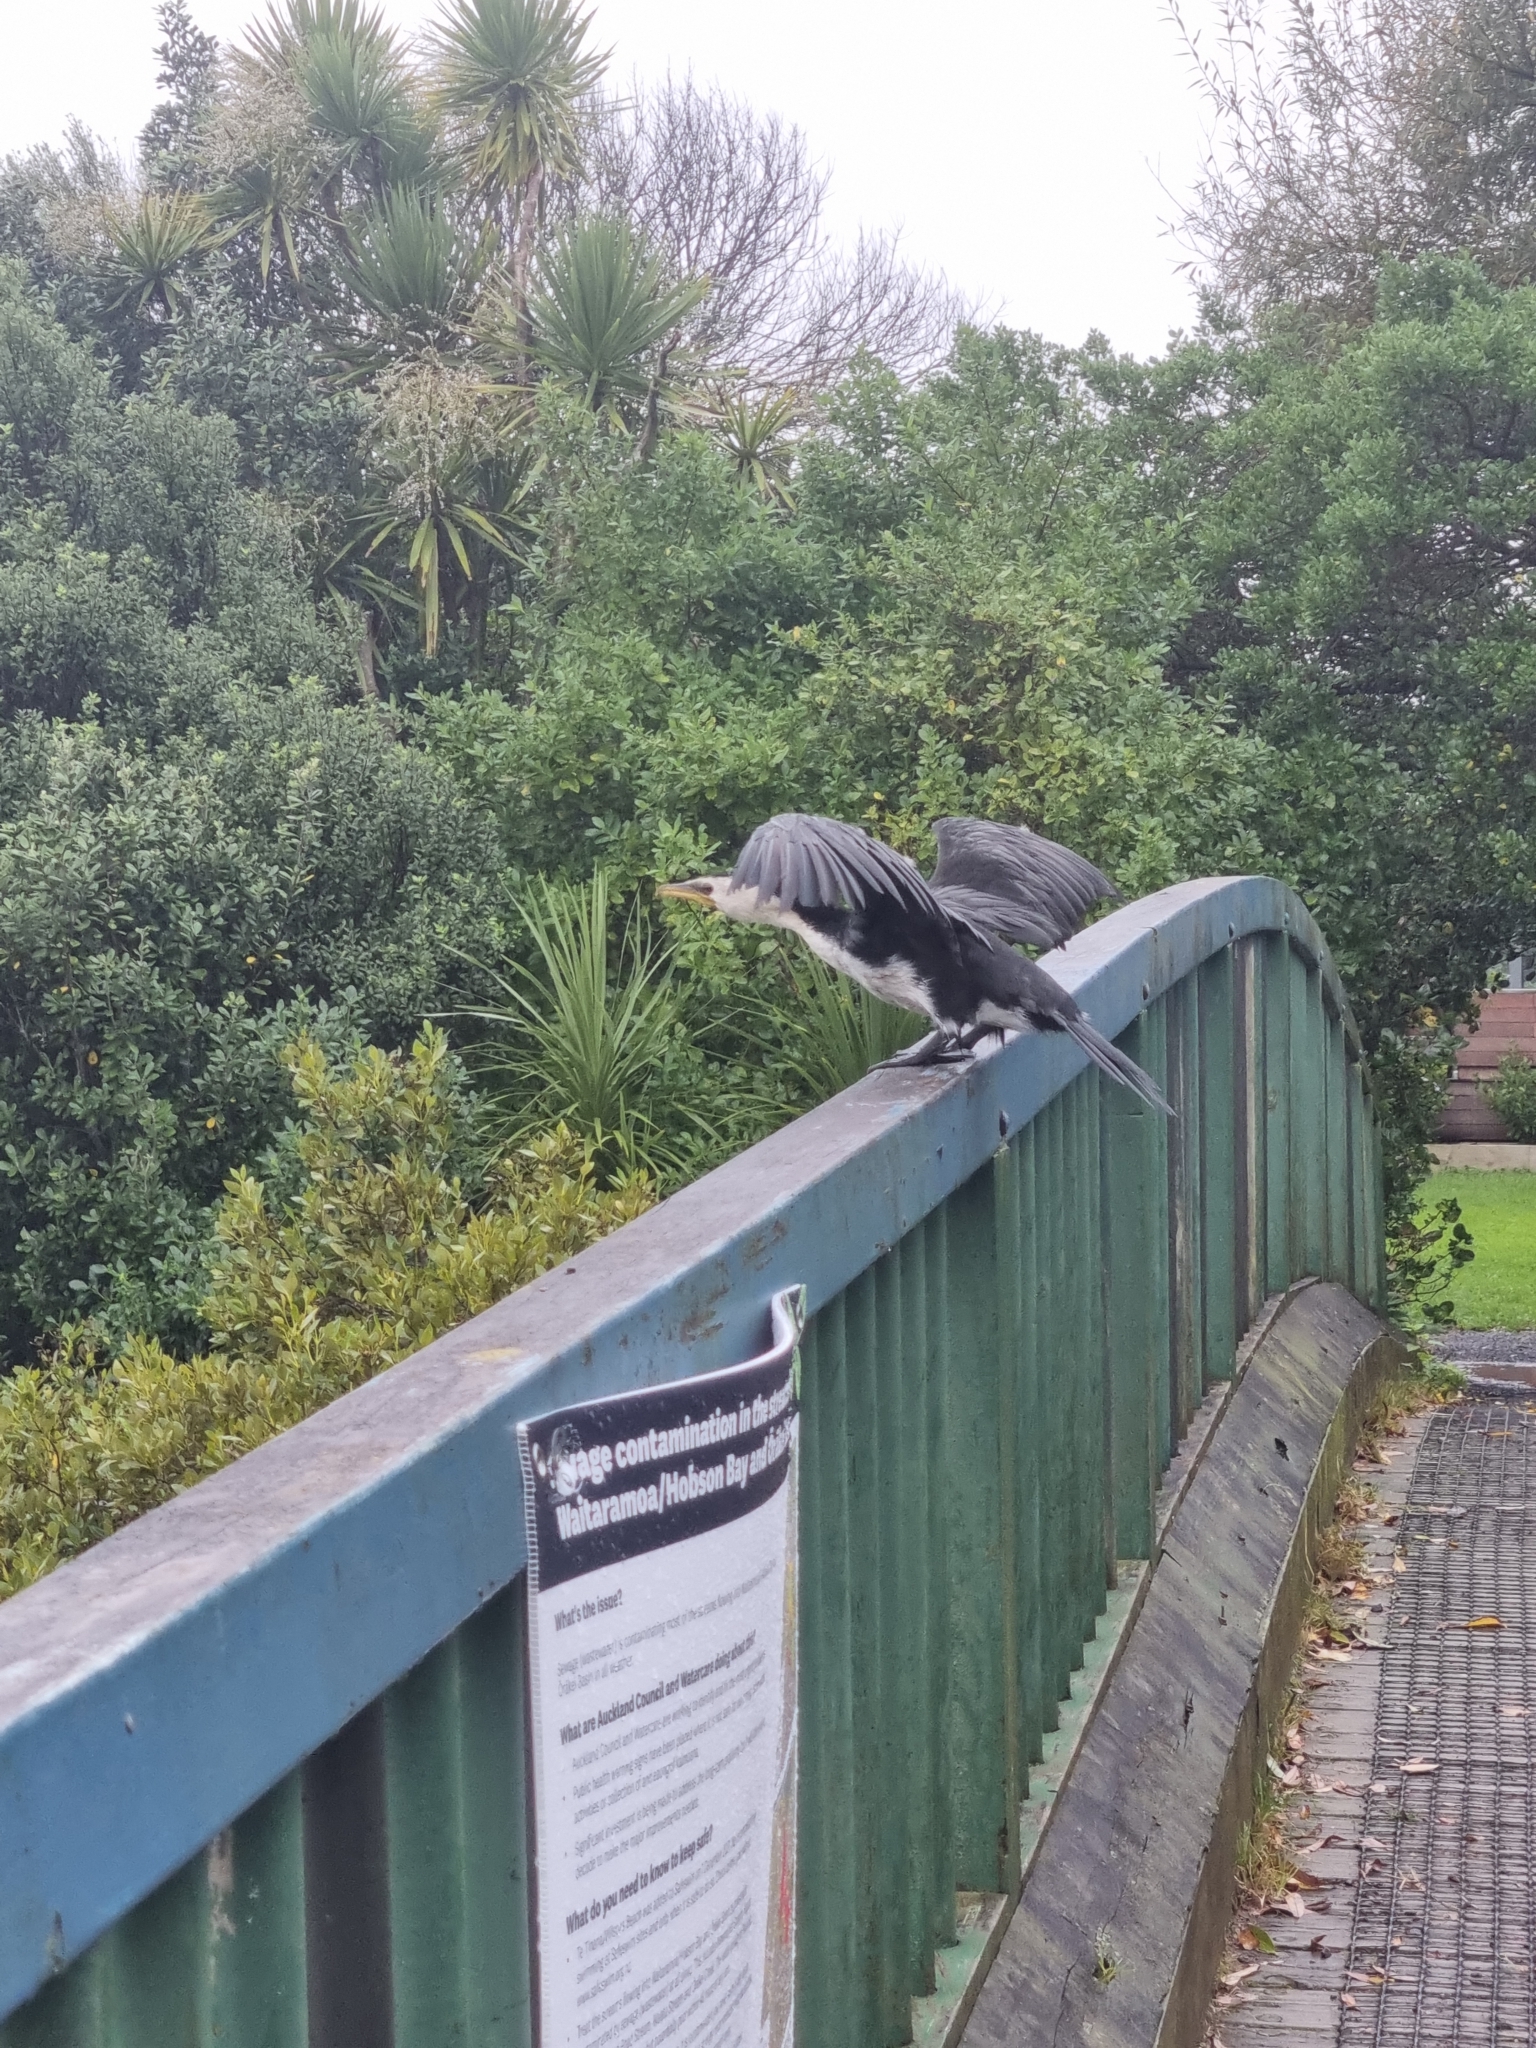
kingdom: Animalia
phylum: Chordata
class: Aves
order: Suliformes
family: Phalacrocoracidae
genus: Microcarbo
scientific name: Microcarbo melanoleucos
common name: Little pied cormorant
